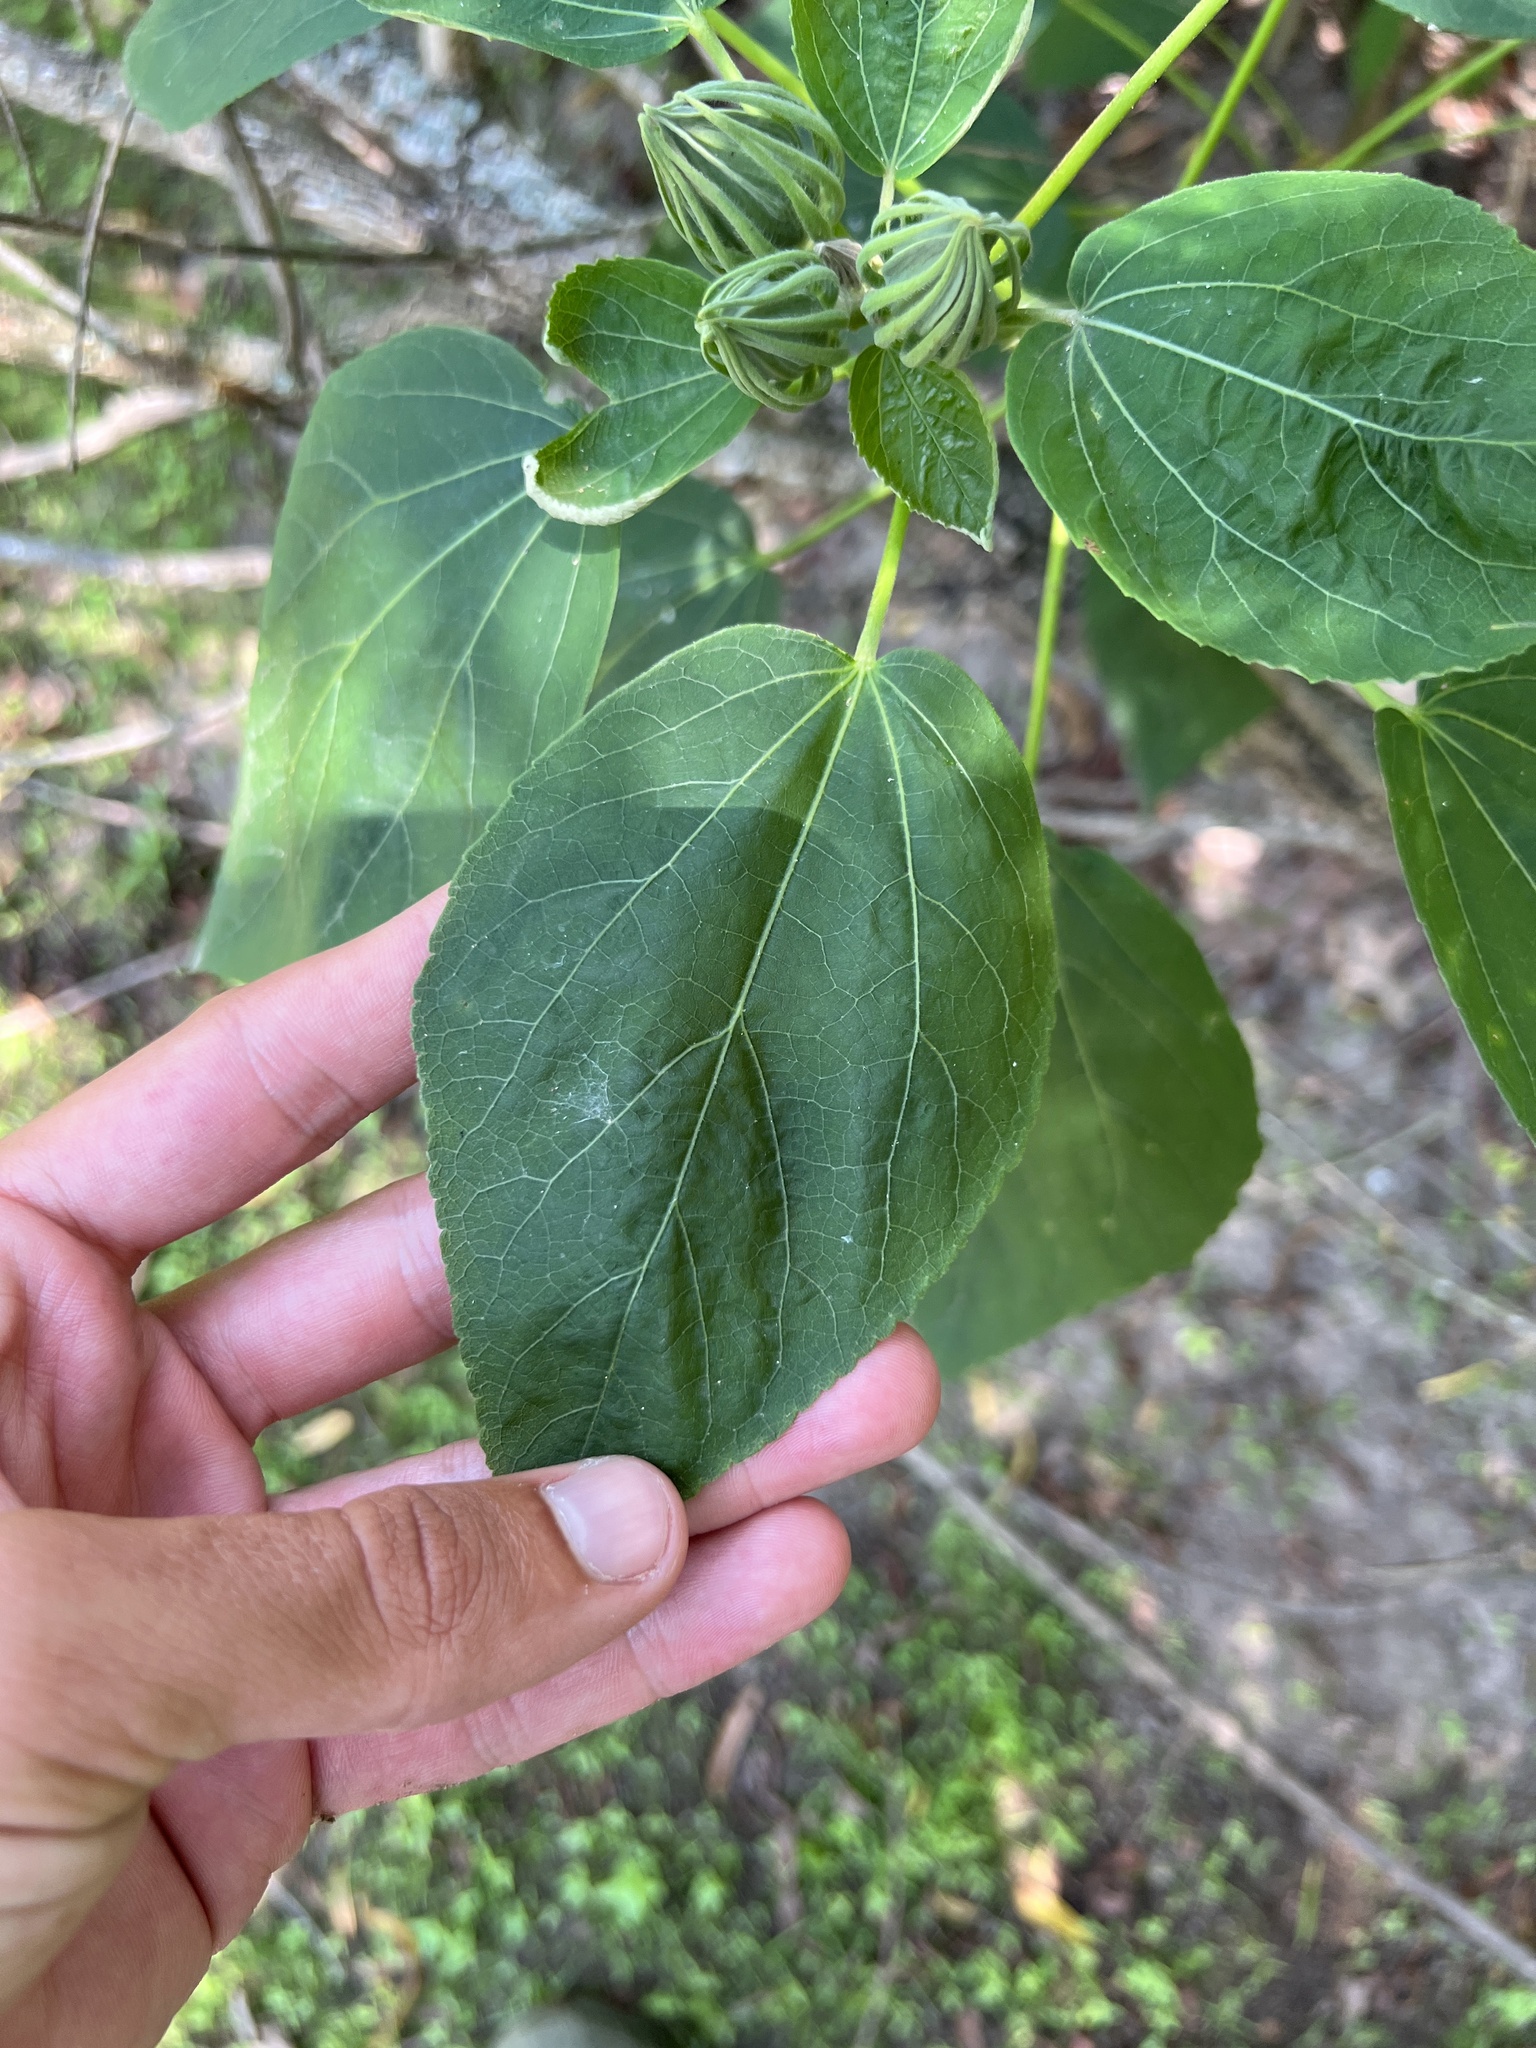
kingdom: Plantae
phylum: Tracheophyta
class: Magnoliopsida
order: Malvales
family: Malvaceae
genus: Hibiscus
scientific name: Hibiscus moscheutos
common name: Common rose-mallow
